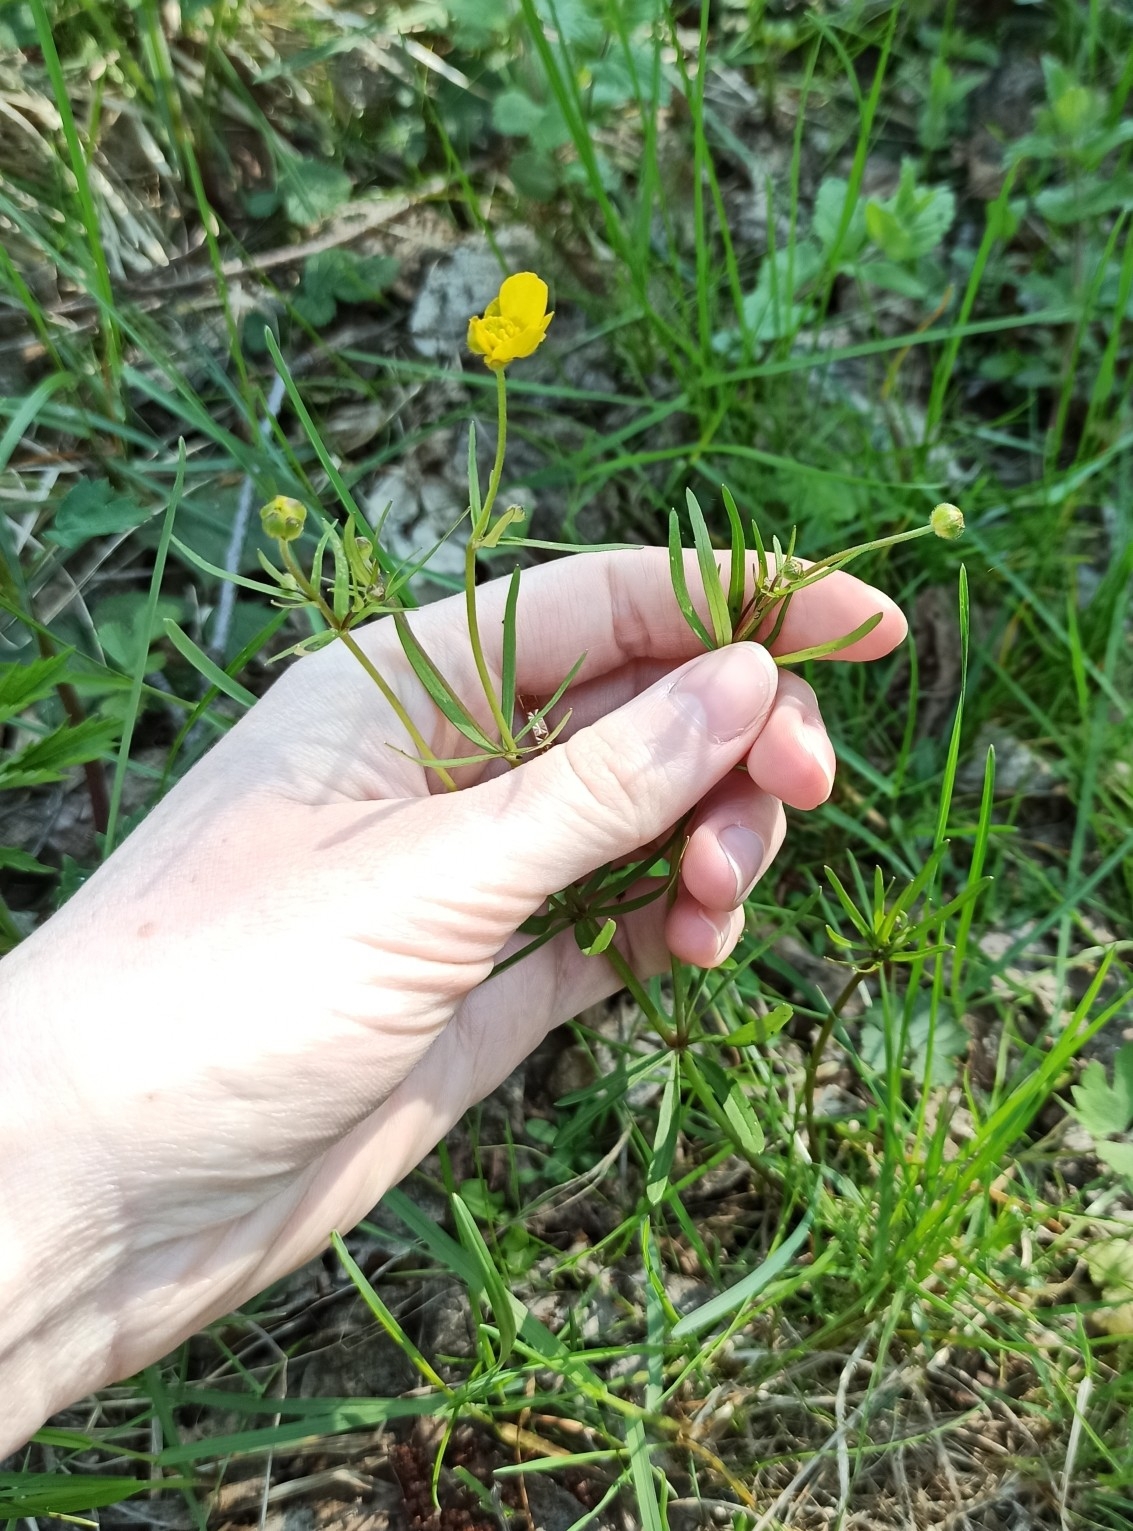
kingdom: Plantae
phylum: Tracheophyta
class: Magnoliopsida
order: Ranunculales
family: Ranunculaceae
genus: Ranunculus
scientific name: Ranunculus auricomus
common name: Goldilocks buttercup
